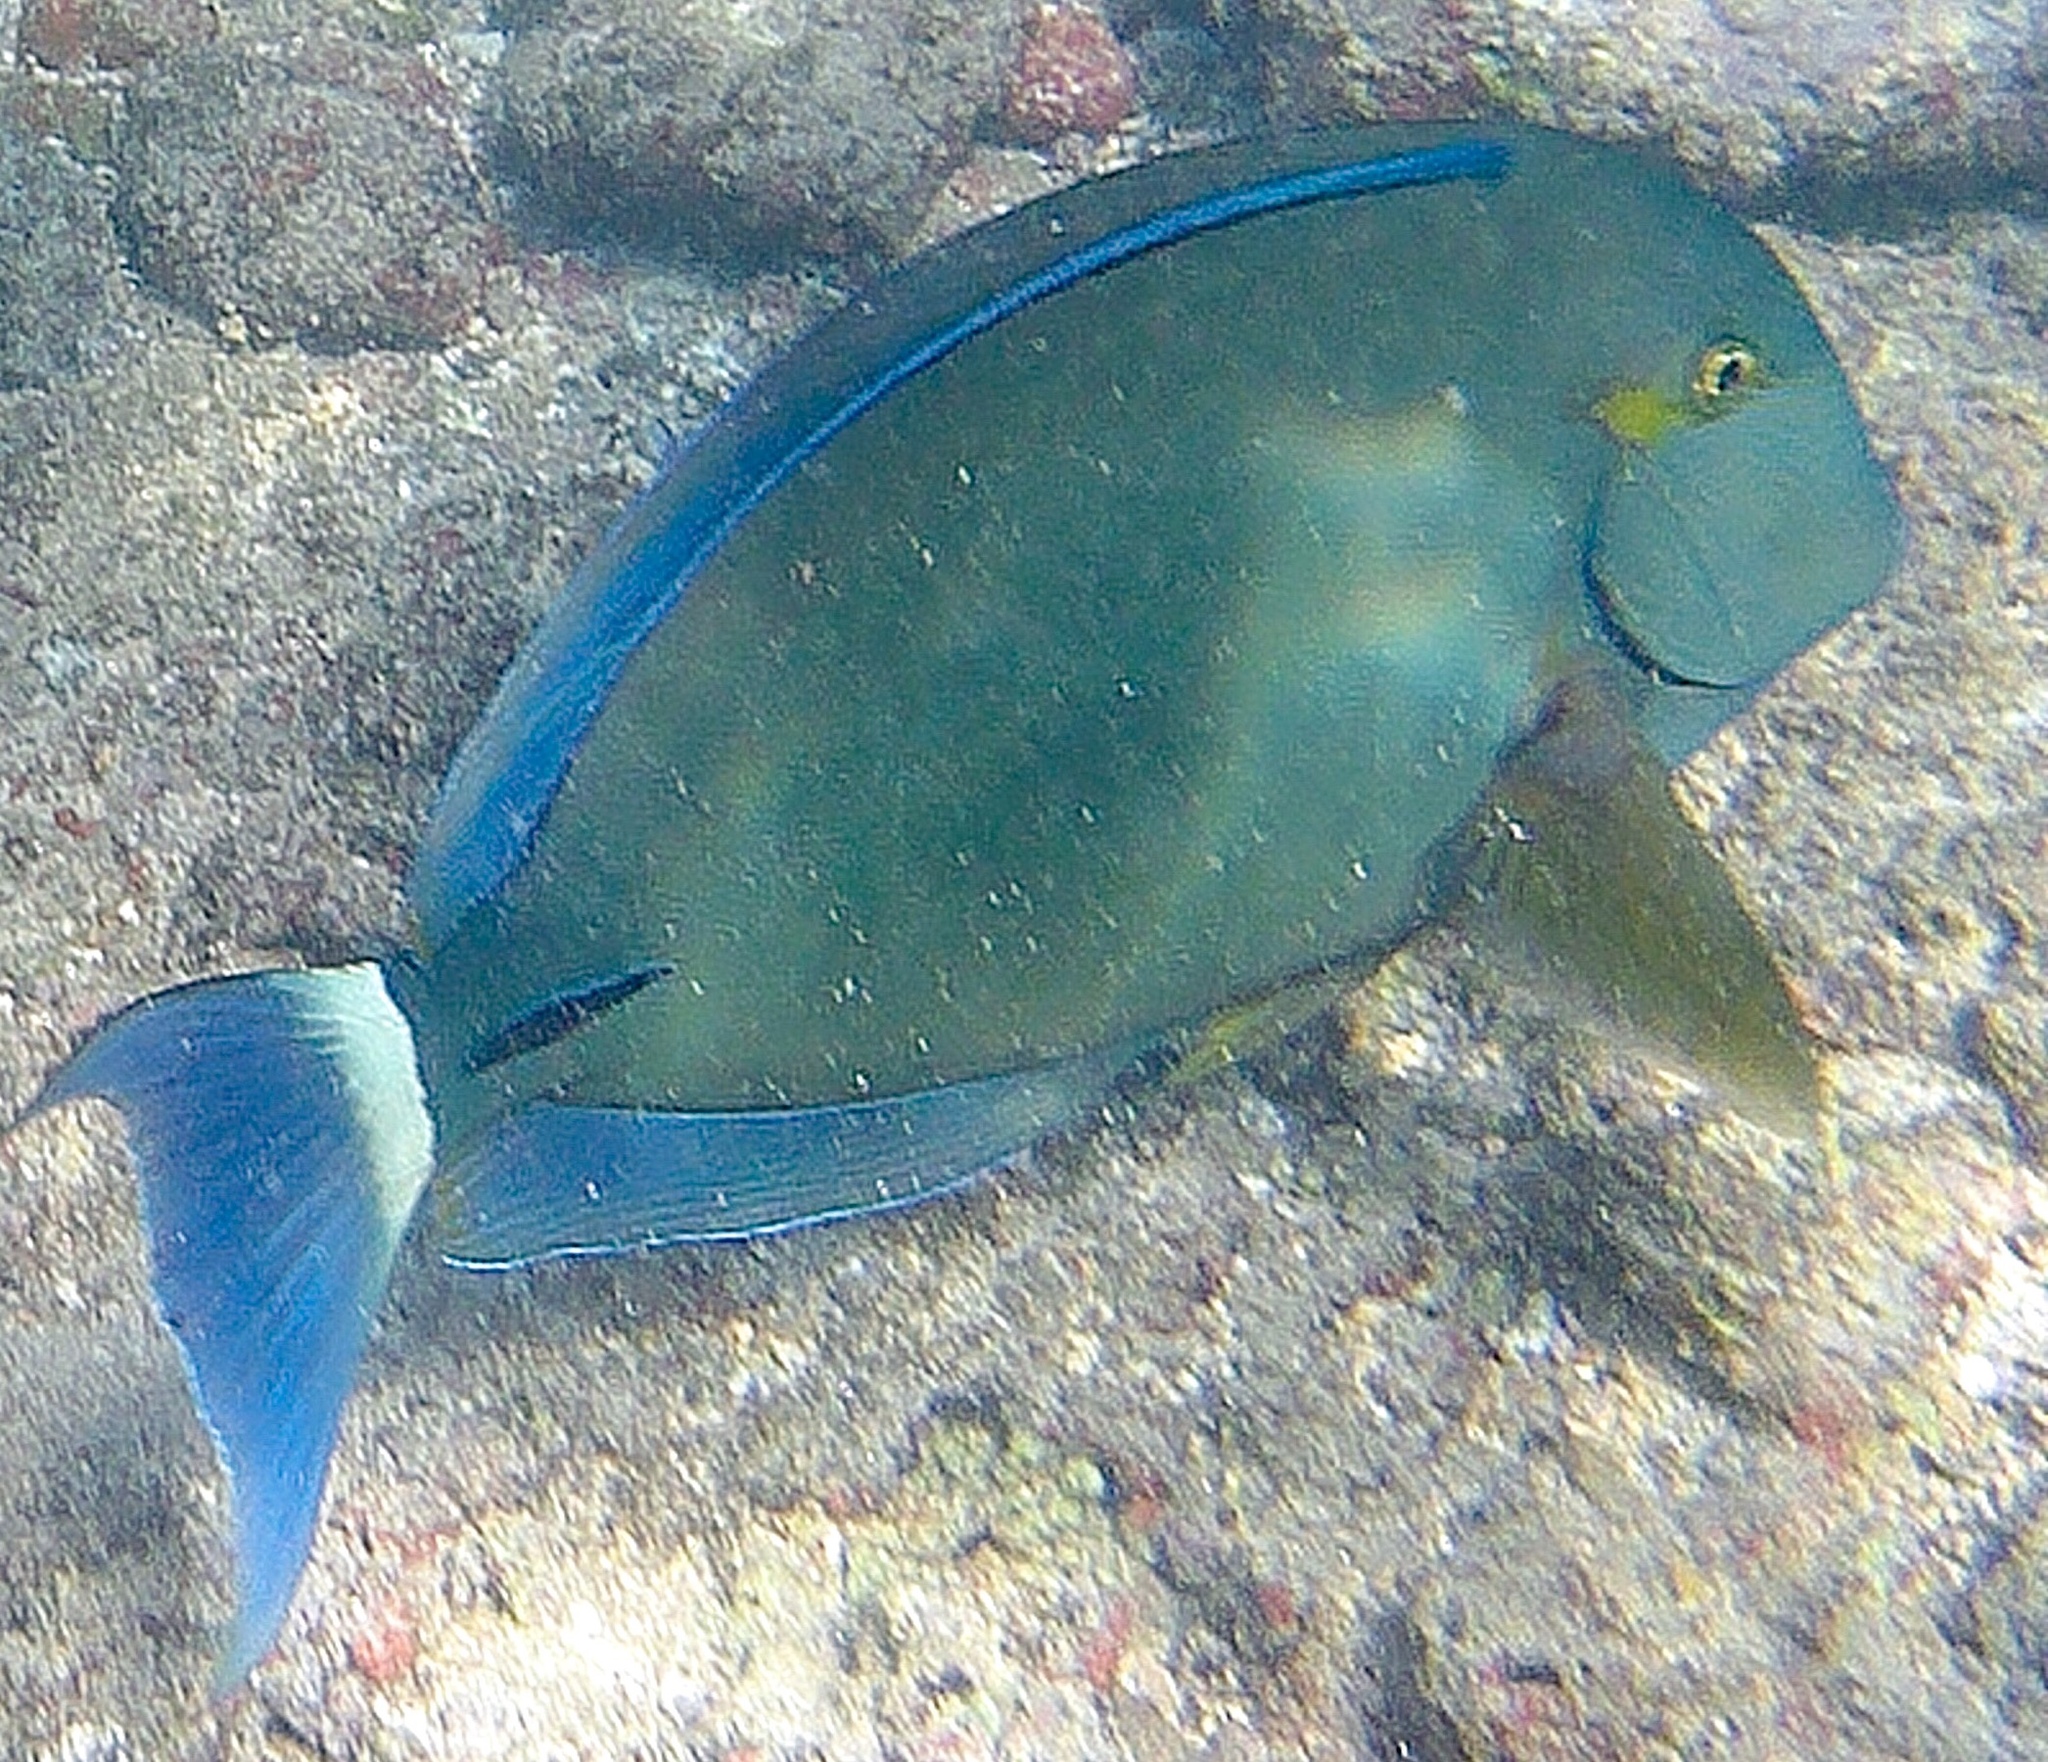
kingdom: Animalia
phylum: Chordata
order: Perciformes
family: Acanthuridae
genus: Acanthurus
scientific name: Acanthurus blochii
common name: Blue-banded pualu
